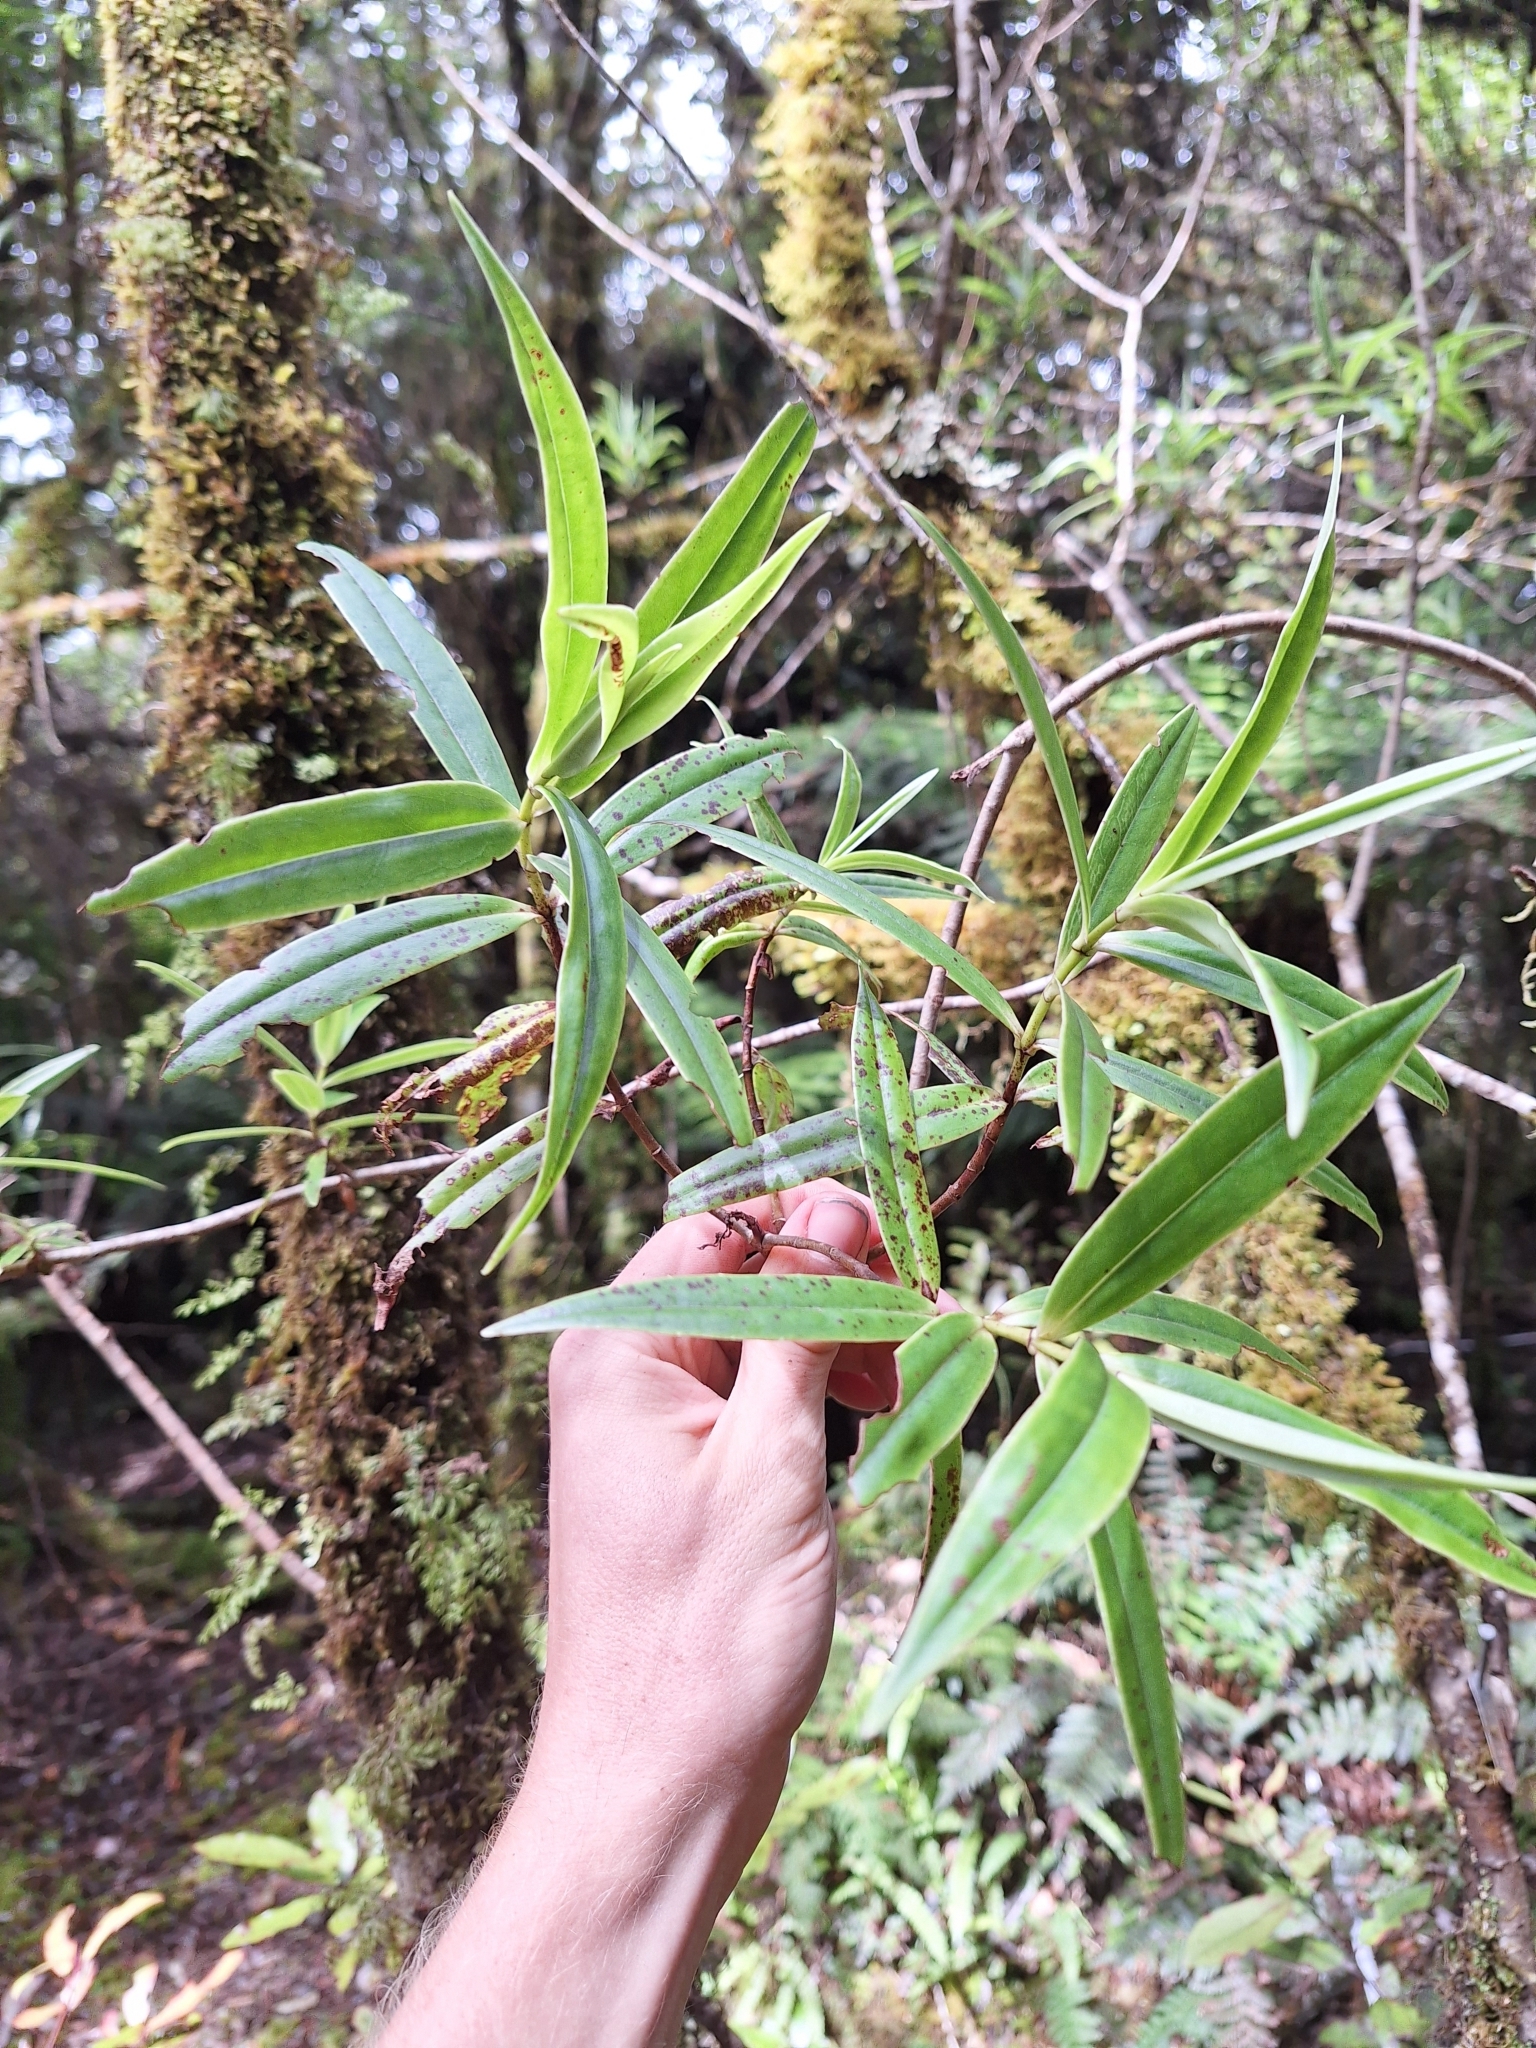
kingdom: Plantae
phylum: Tracheophyta
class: Magnoliopsida
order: Lamiales
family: Plantaginaceae
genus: Veronica
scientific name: Veronica corriganii
